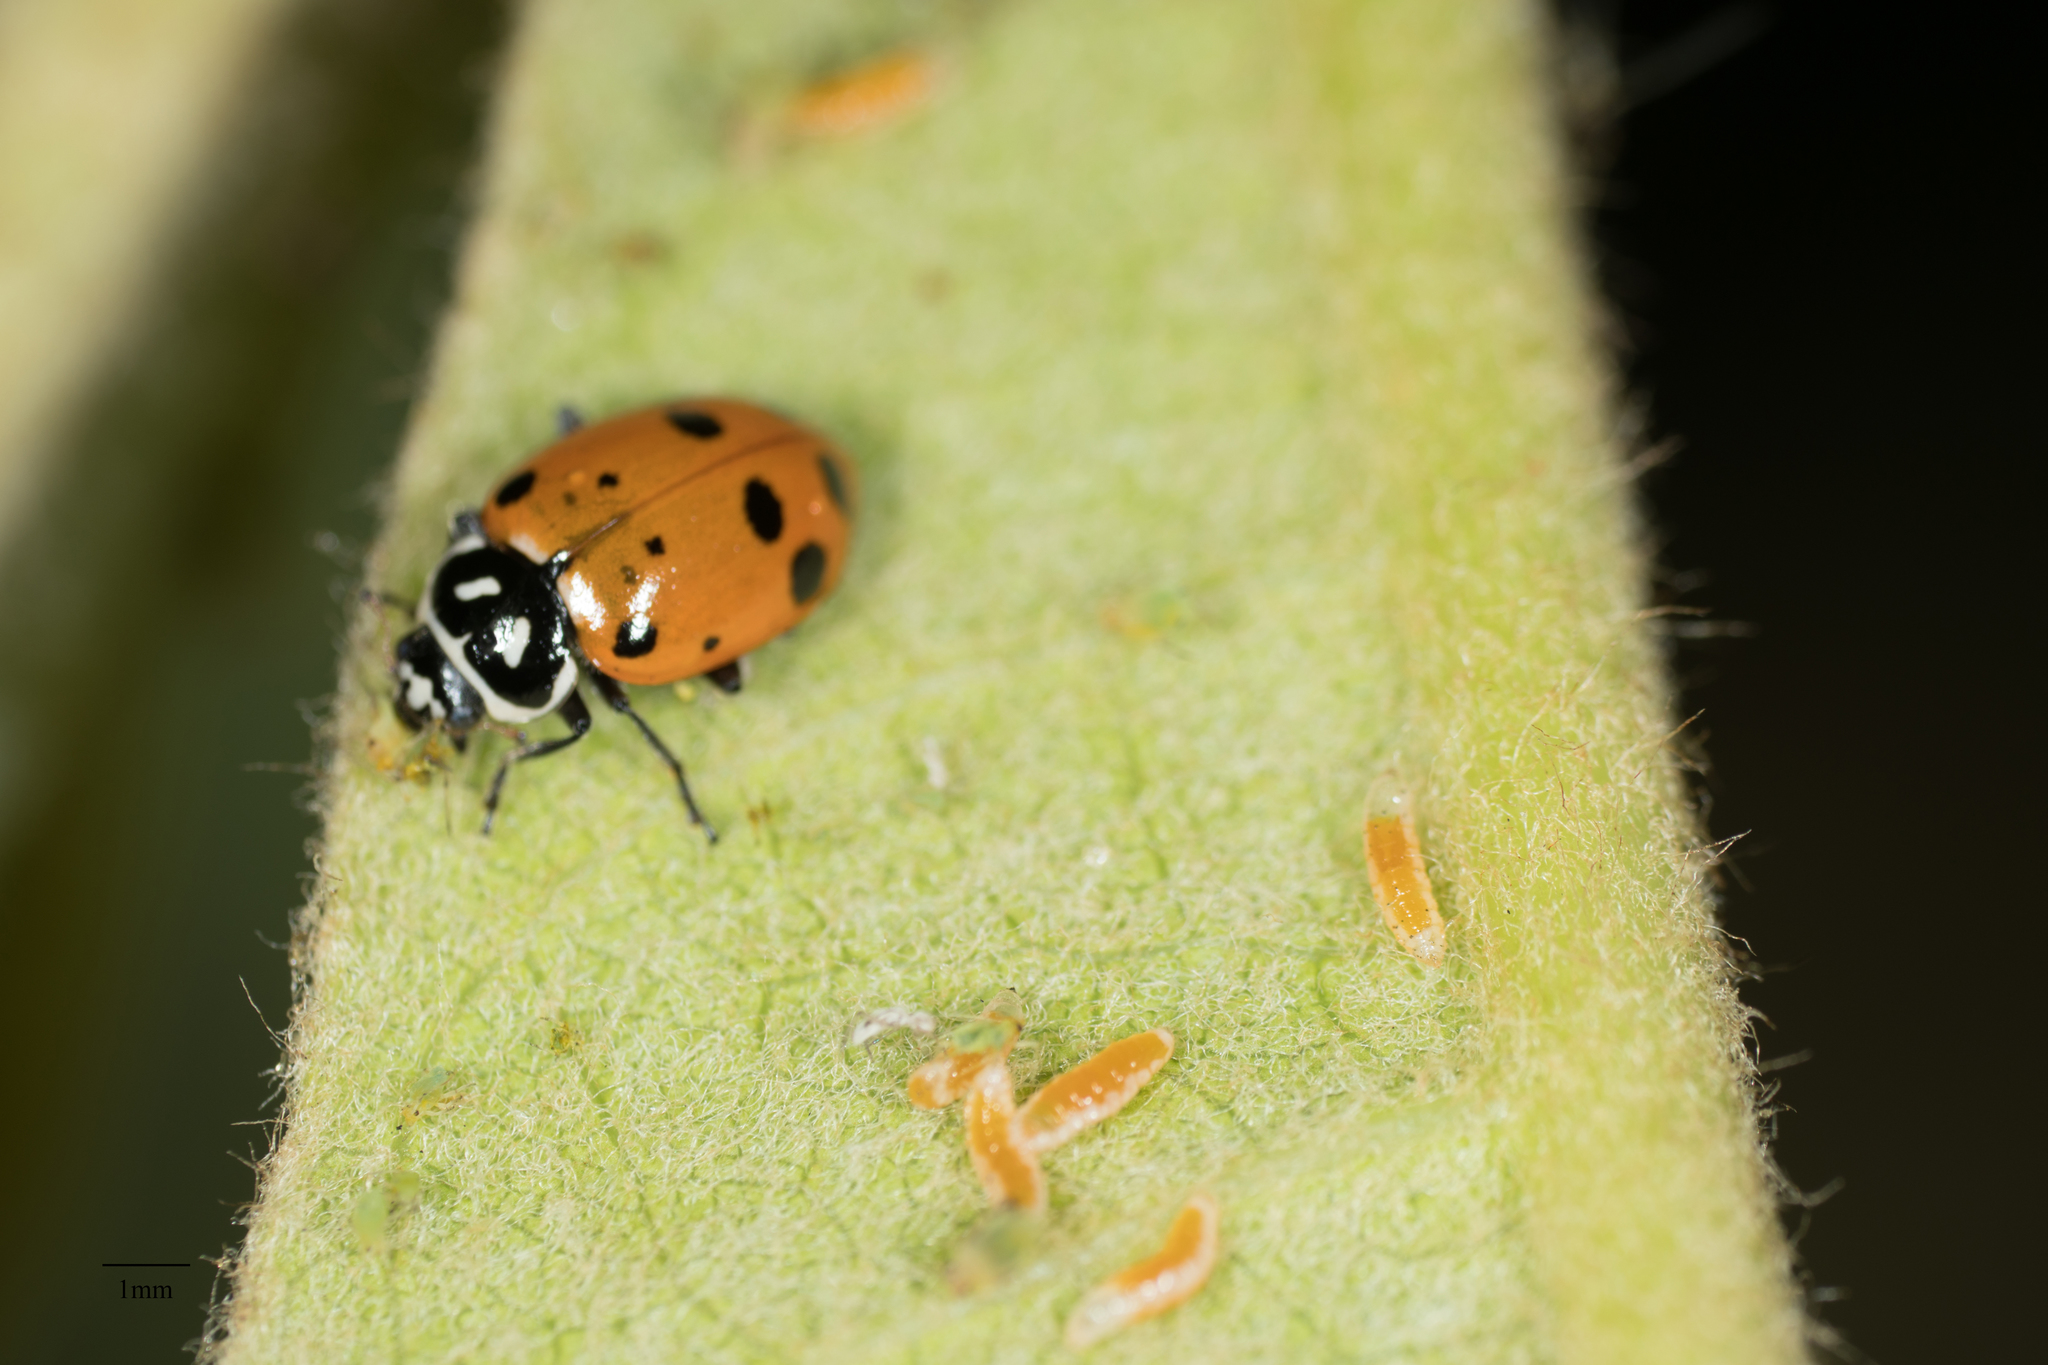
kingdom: Animalia
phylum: Arthropoda
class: Insecta
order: Coleoptera
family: Coccinellidae
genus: Hippodamia
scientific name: Hippodamia convergens
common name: Convergent lady beetle
